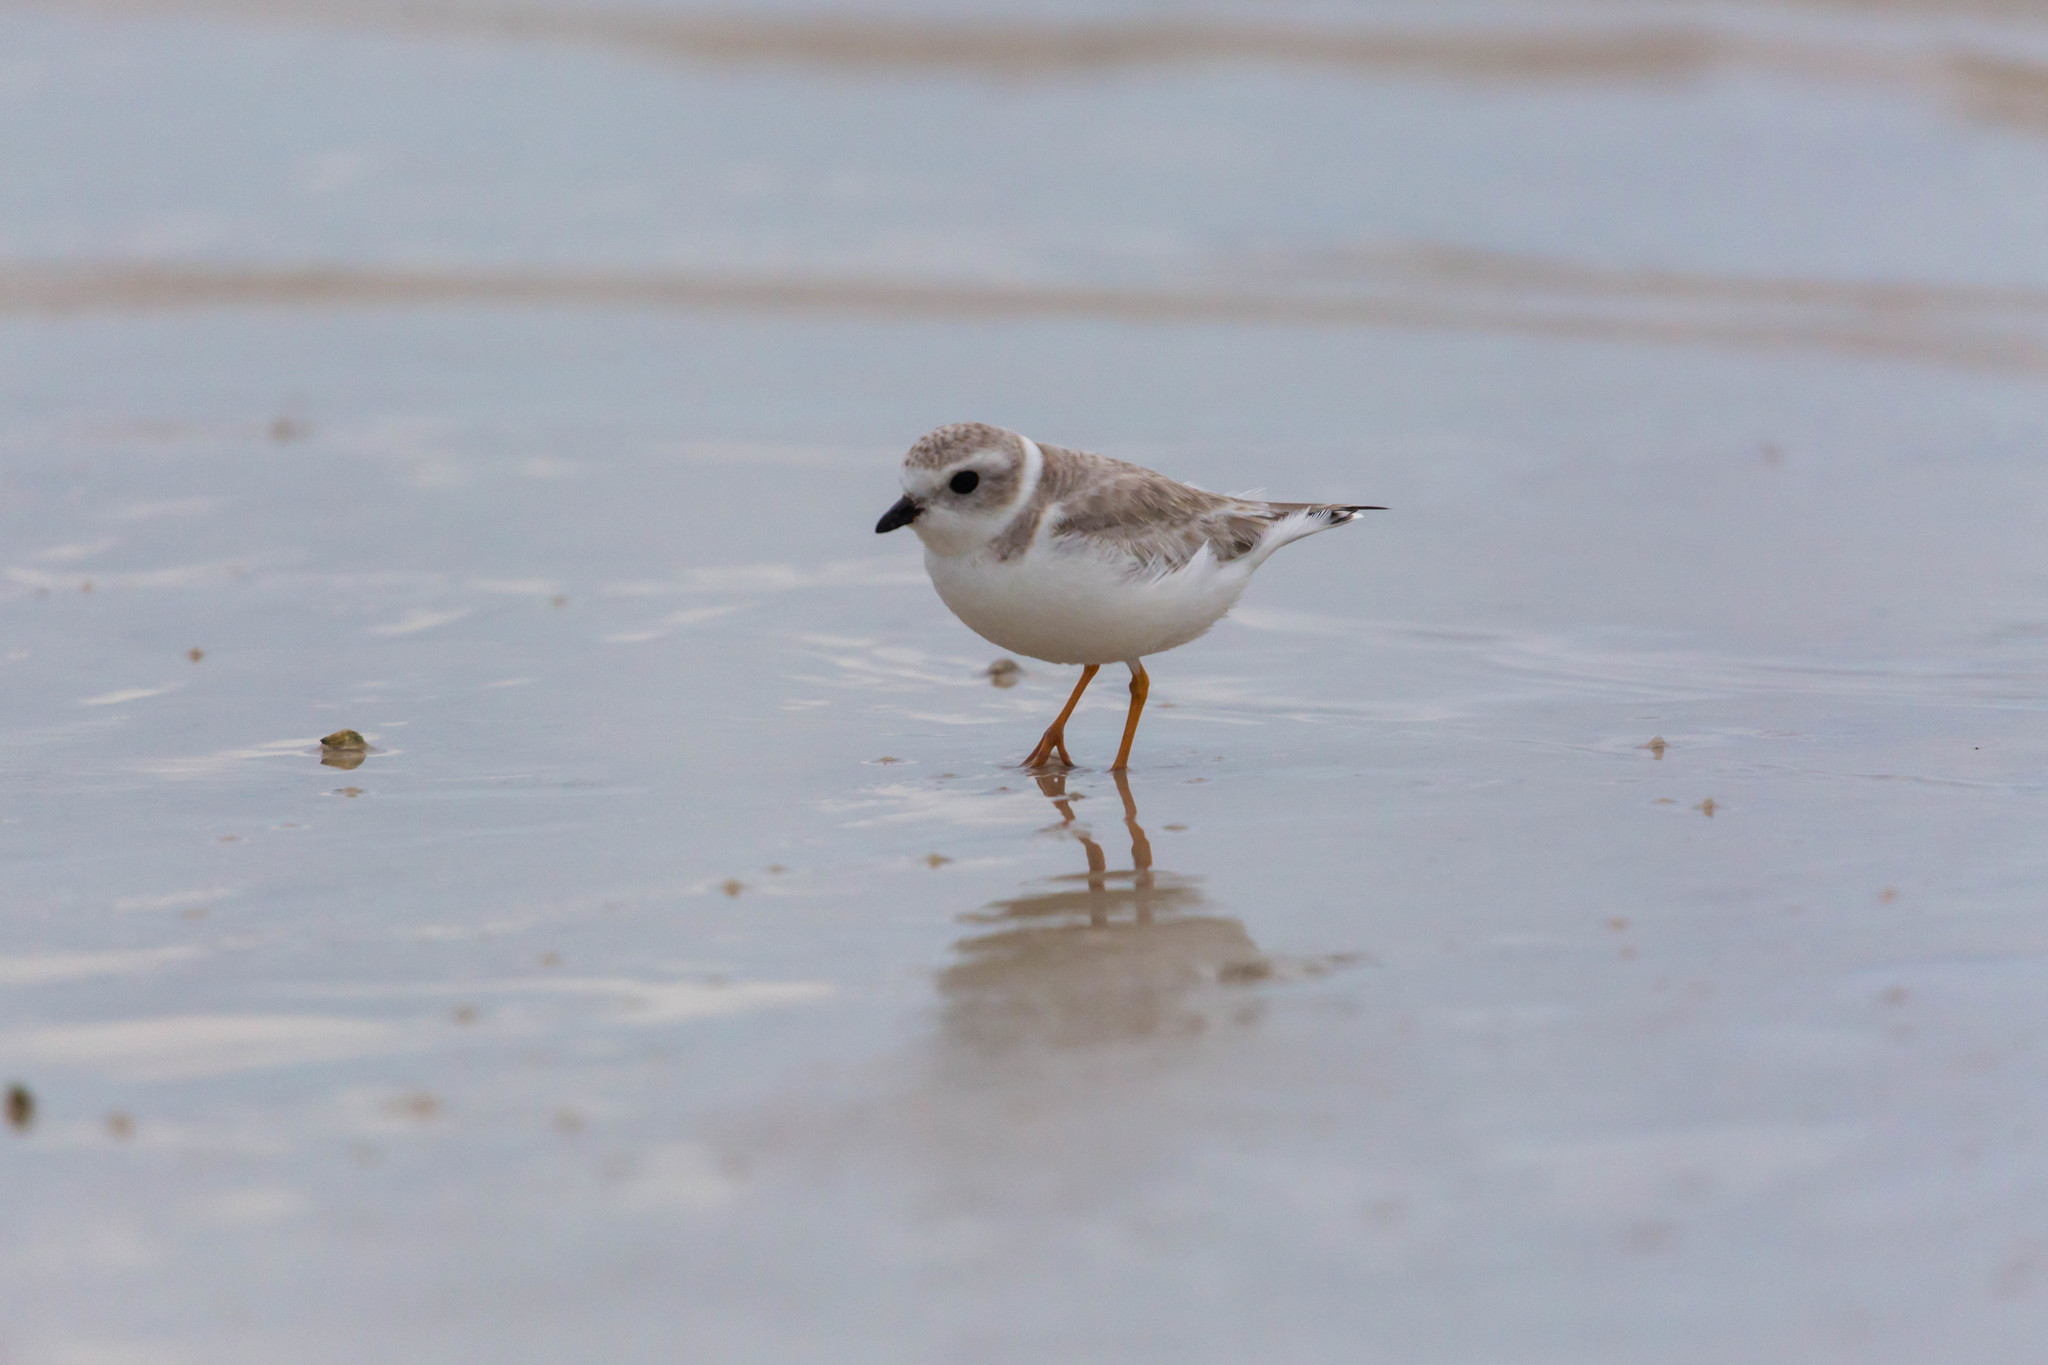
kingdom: Animalia
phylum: Chordata
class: Aves
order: Charadriiformes
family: Charadriidae
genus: Charadrius
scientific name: Charadrius melodus
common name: Piping plover
